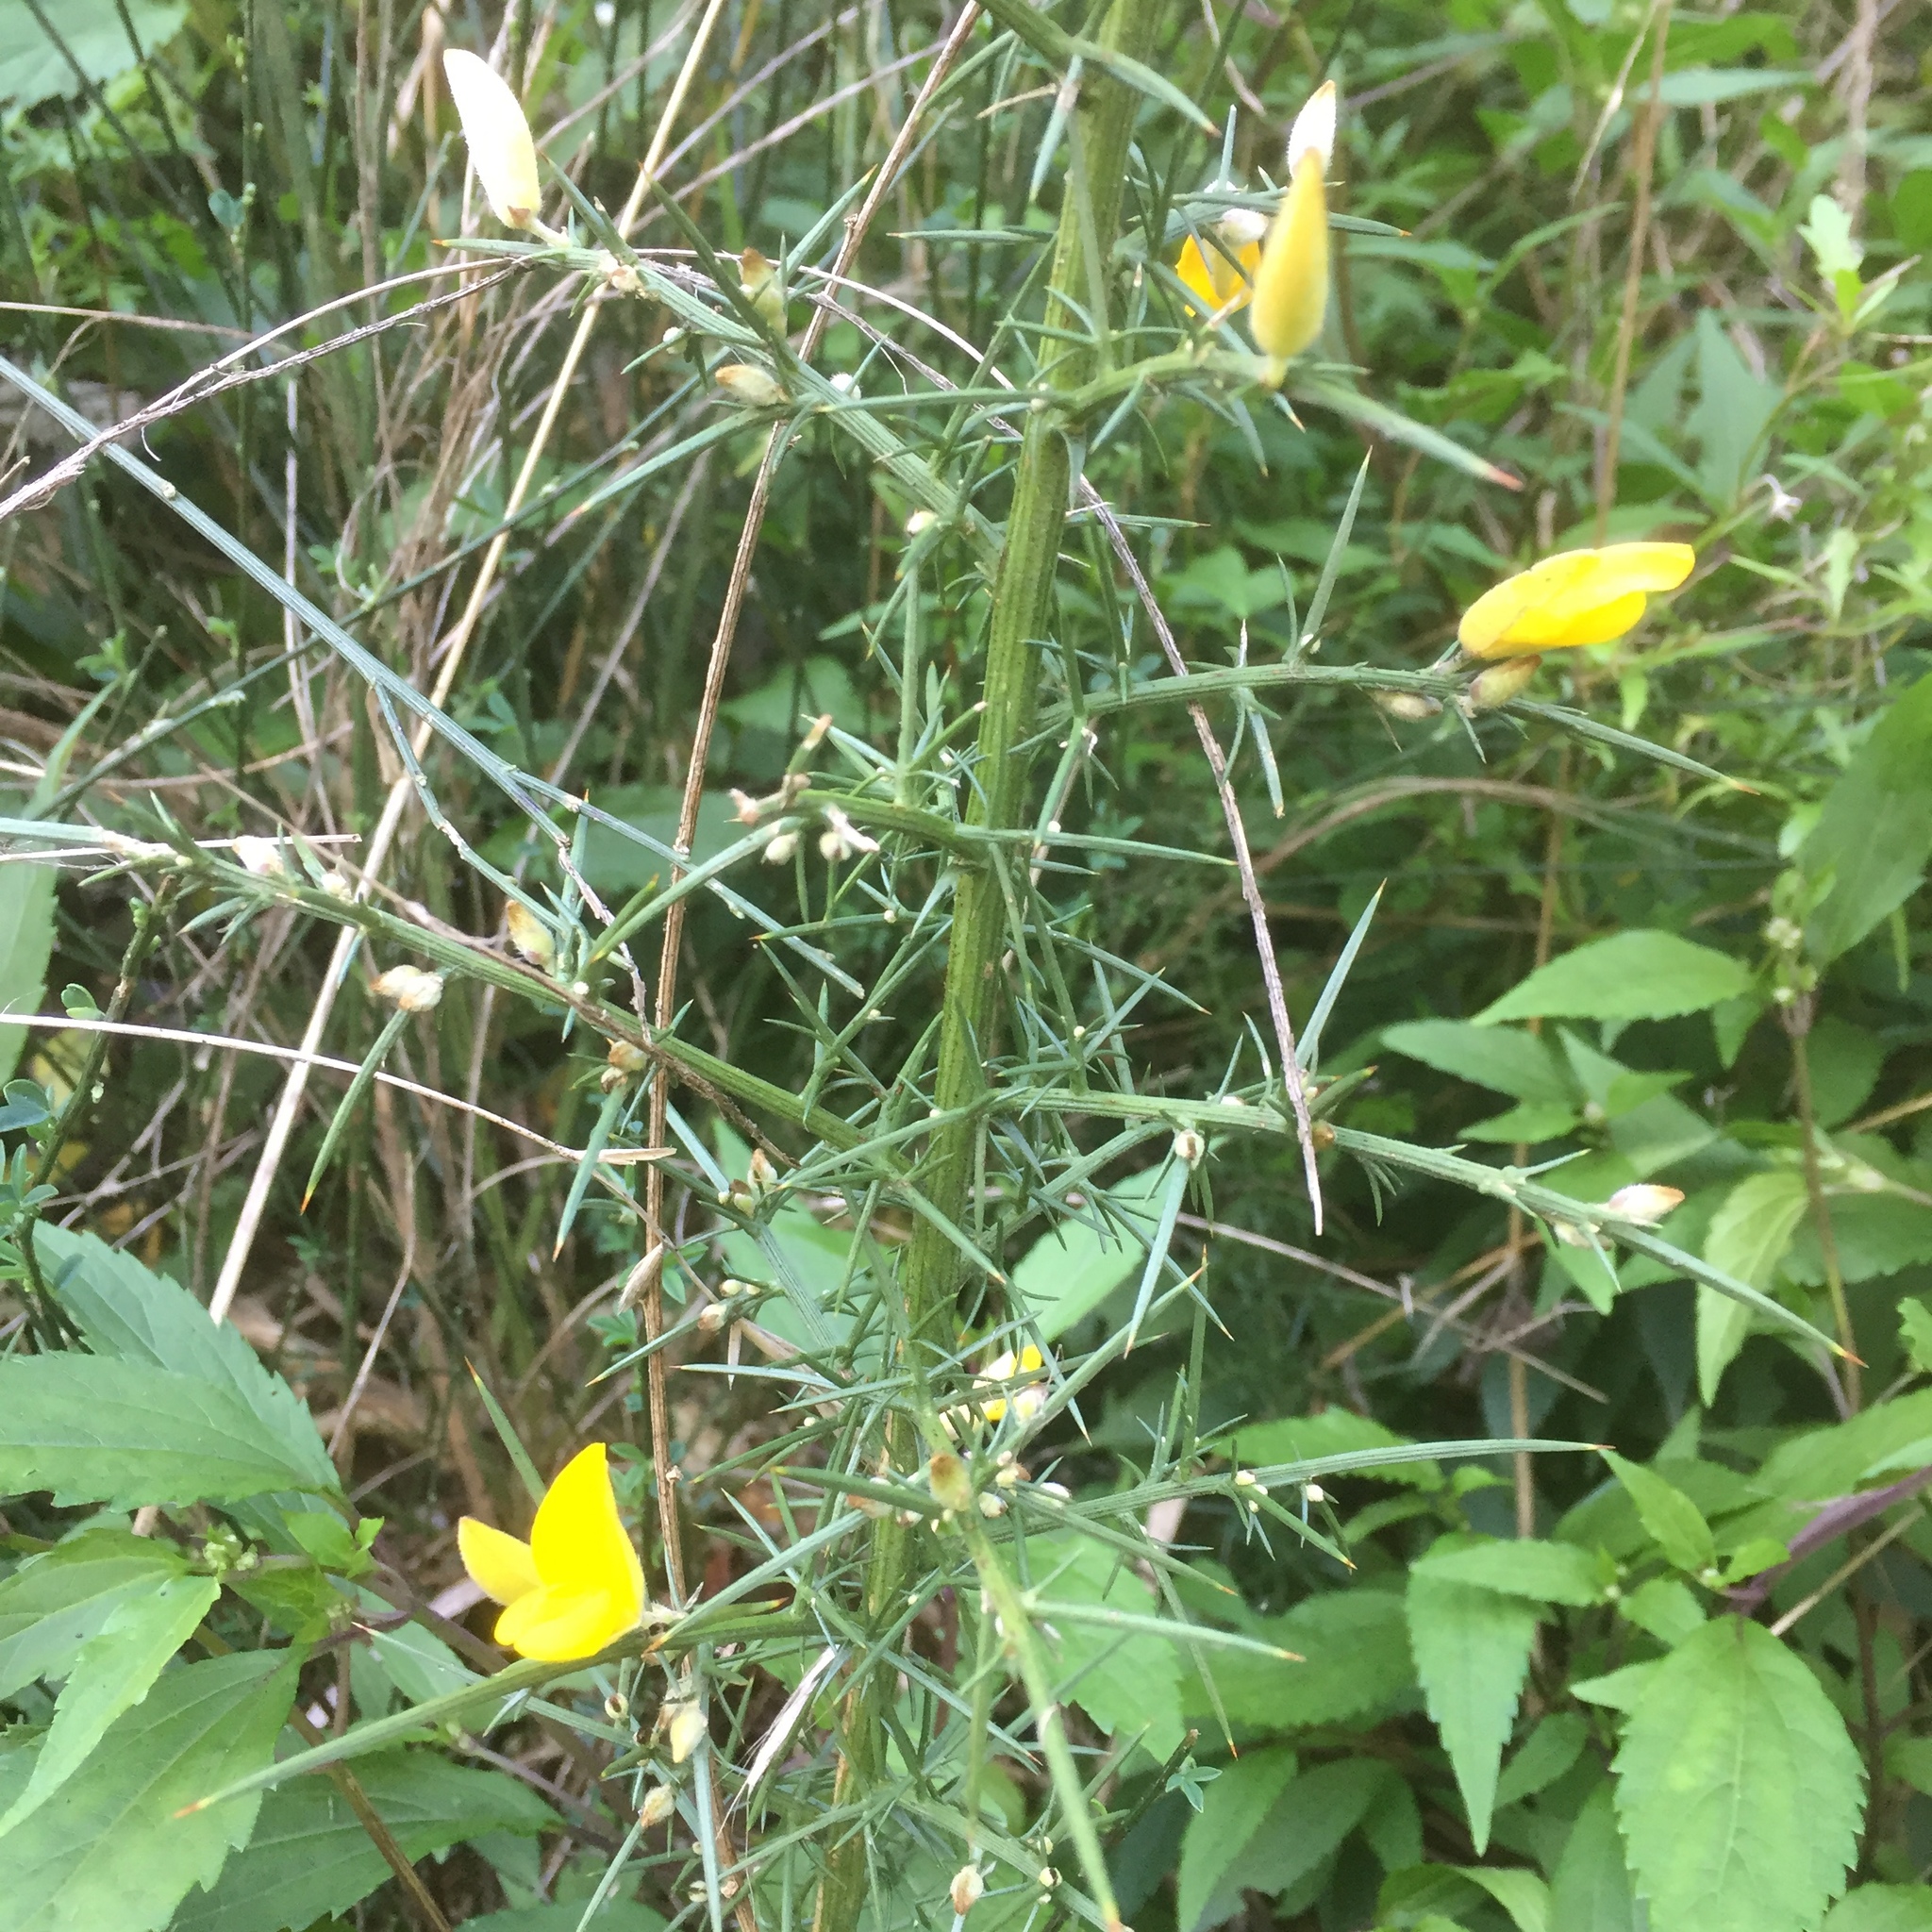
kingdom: Plantae
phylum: Tracheophyta
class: Magnoliopsida
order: Fabales
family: Fabaceae
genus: Ulex
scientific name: Ulex europaeus
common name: Common gorse
